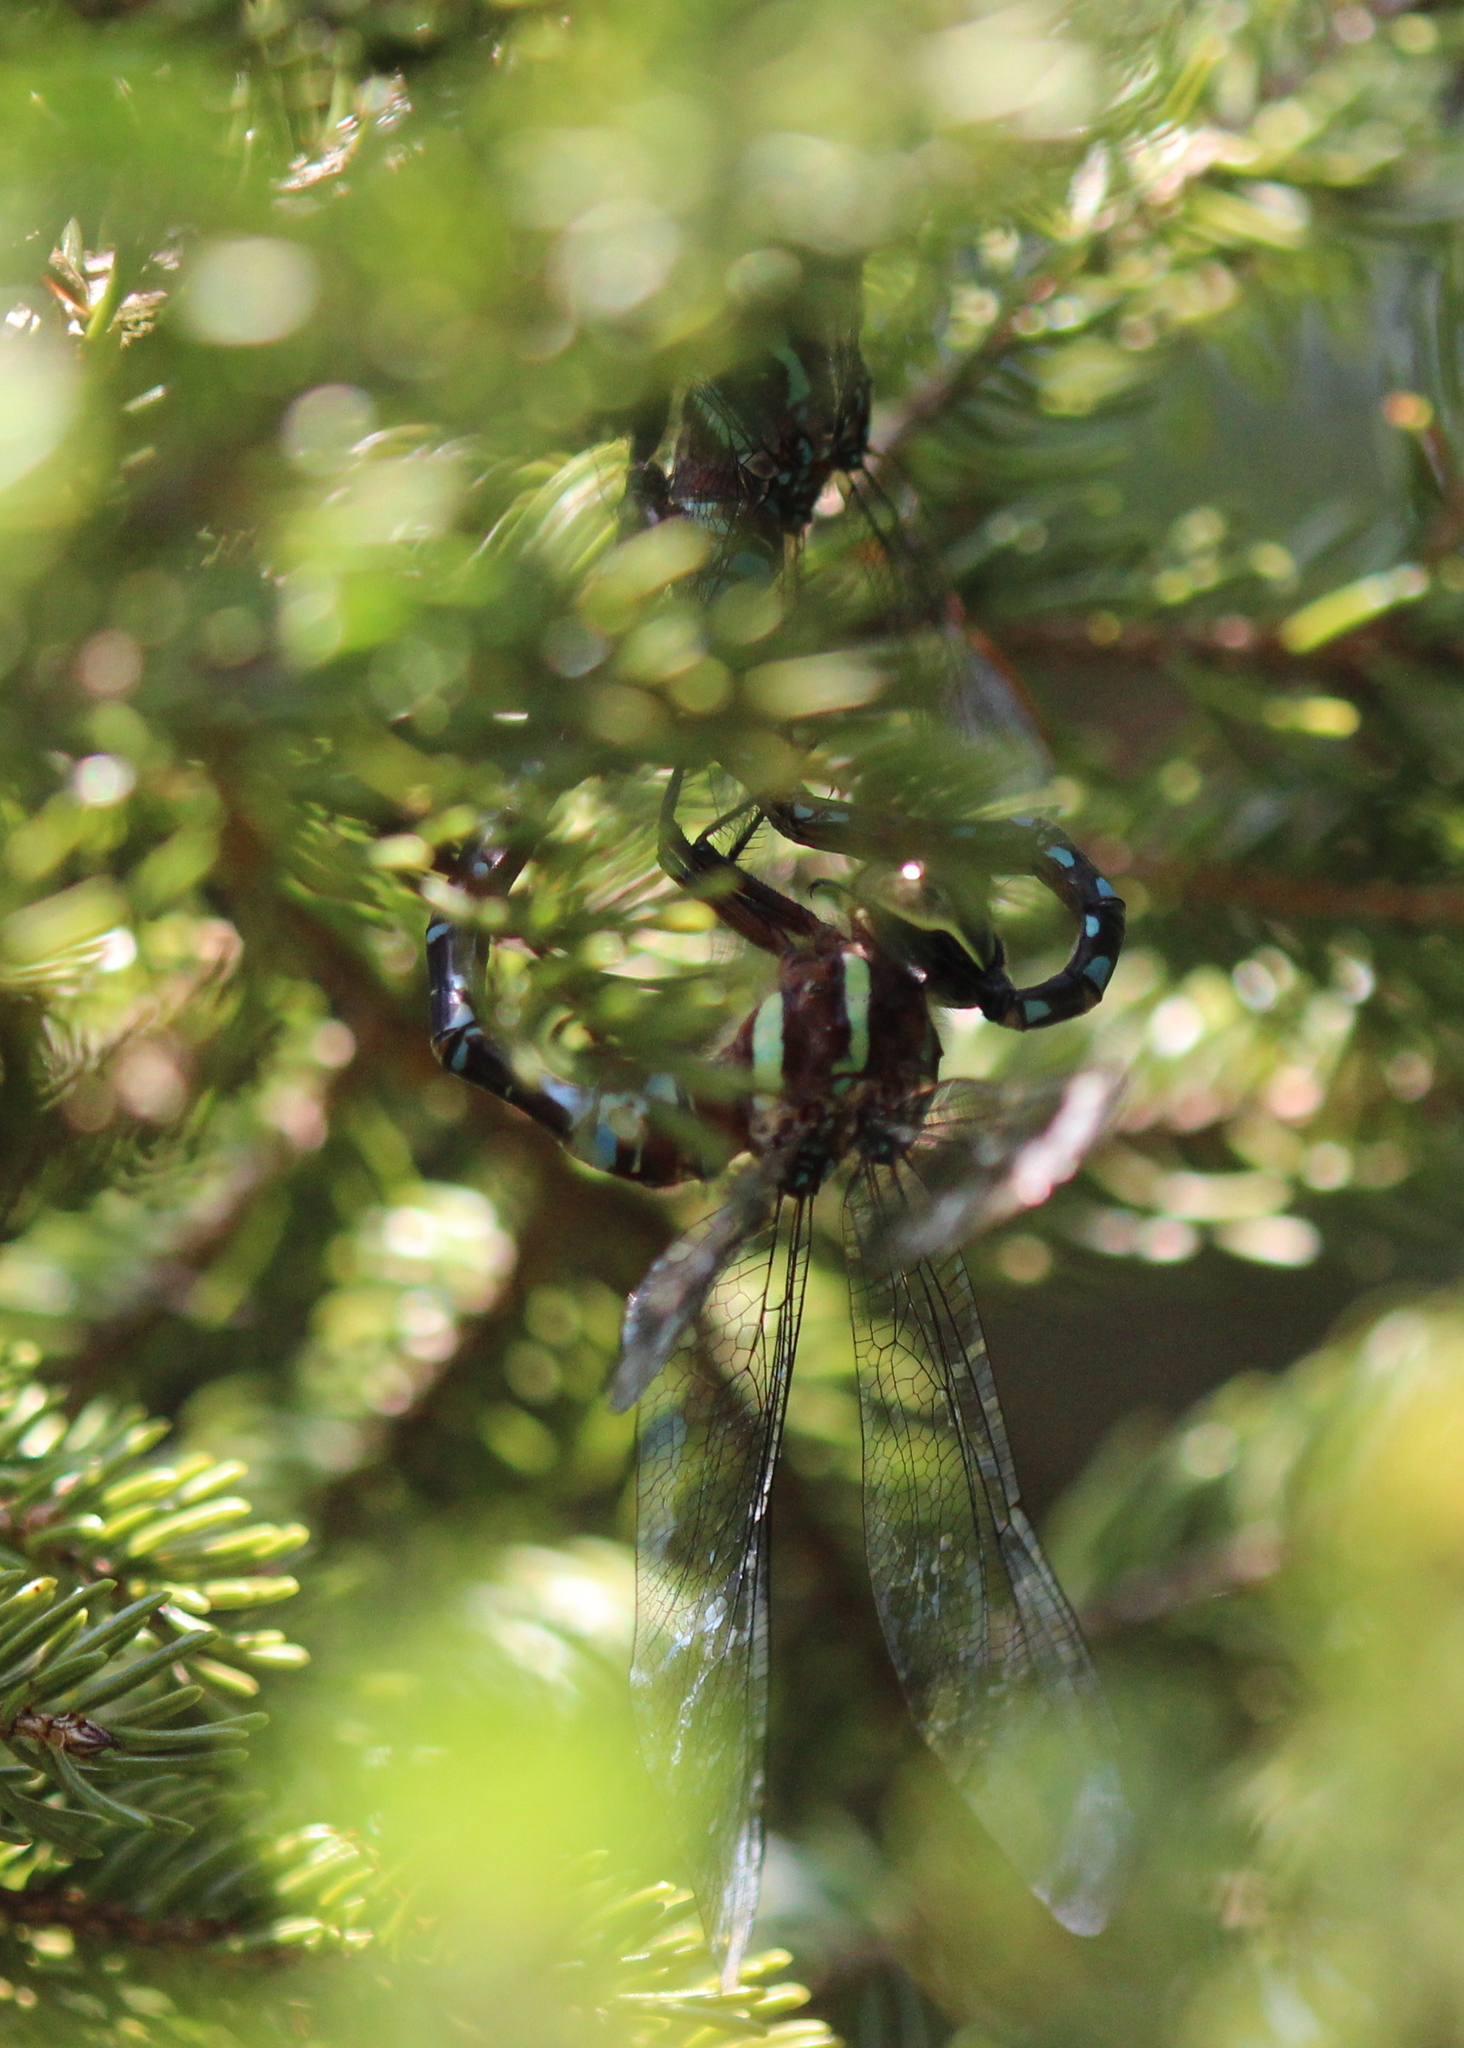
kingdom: Animalia
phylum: Arthropoda
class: Insecta
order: Odonata
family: Aeshnidae
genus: Aeshna
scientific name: Aeshna tuberculifera
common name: Aeschne à tubercules
